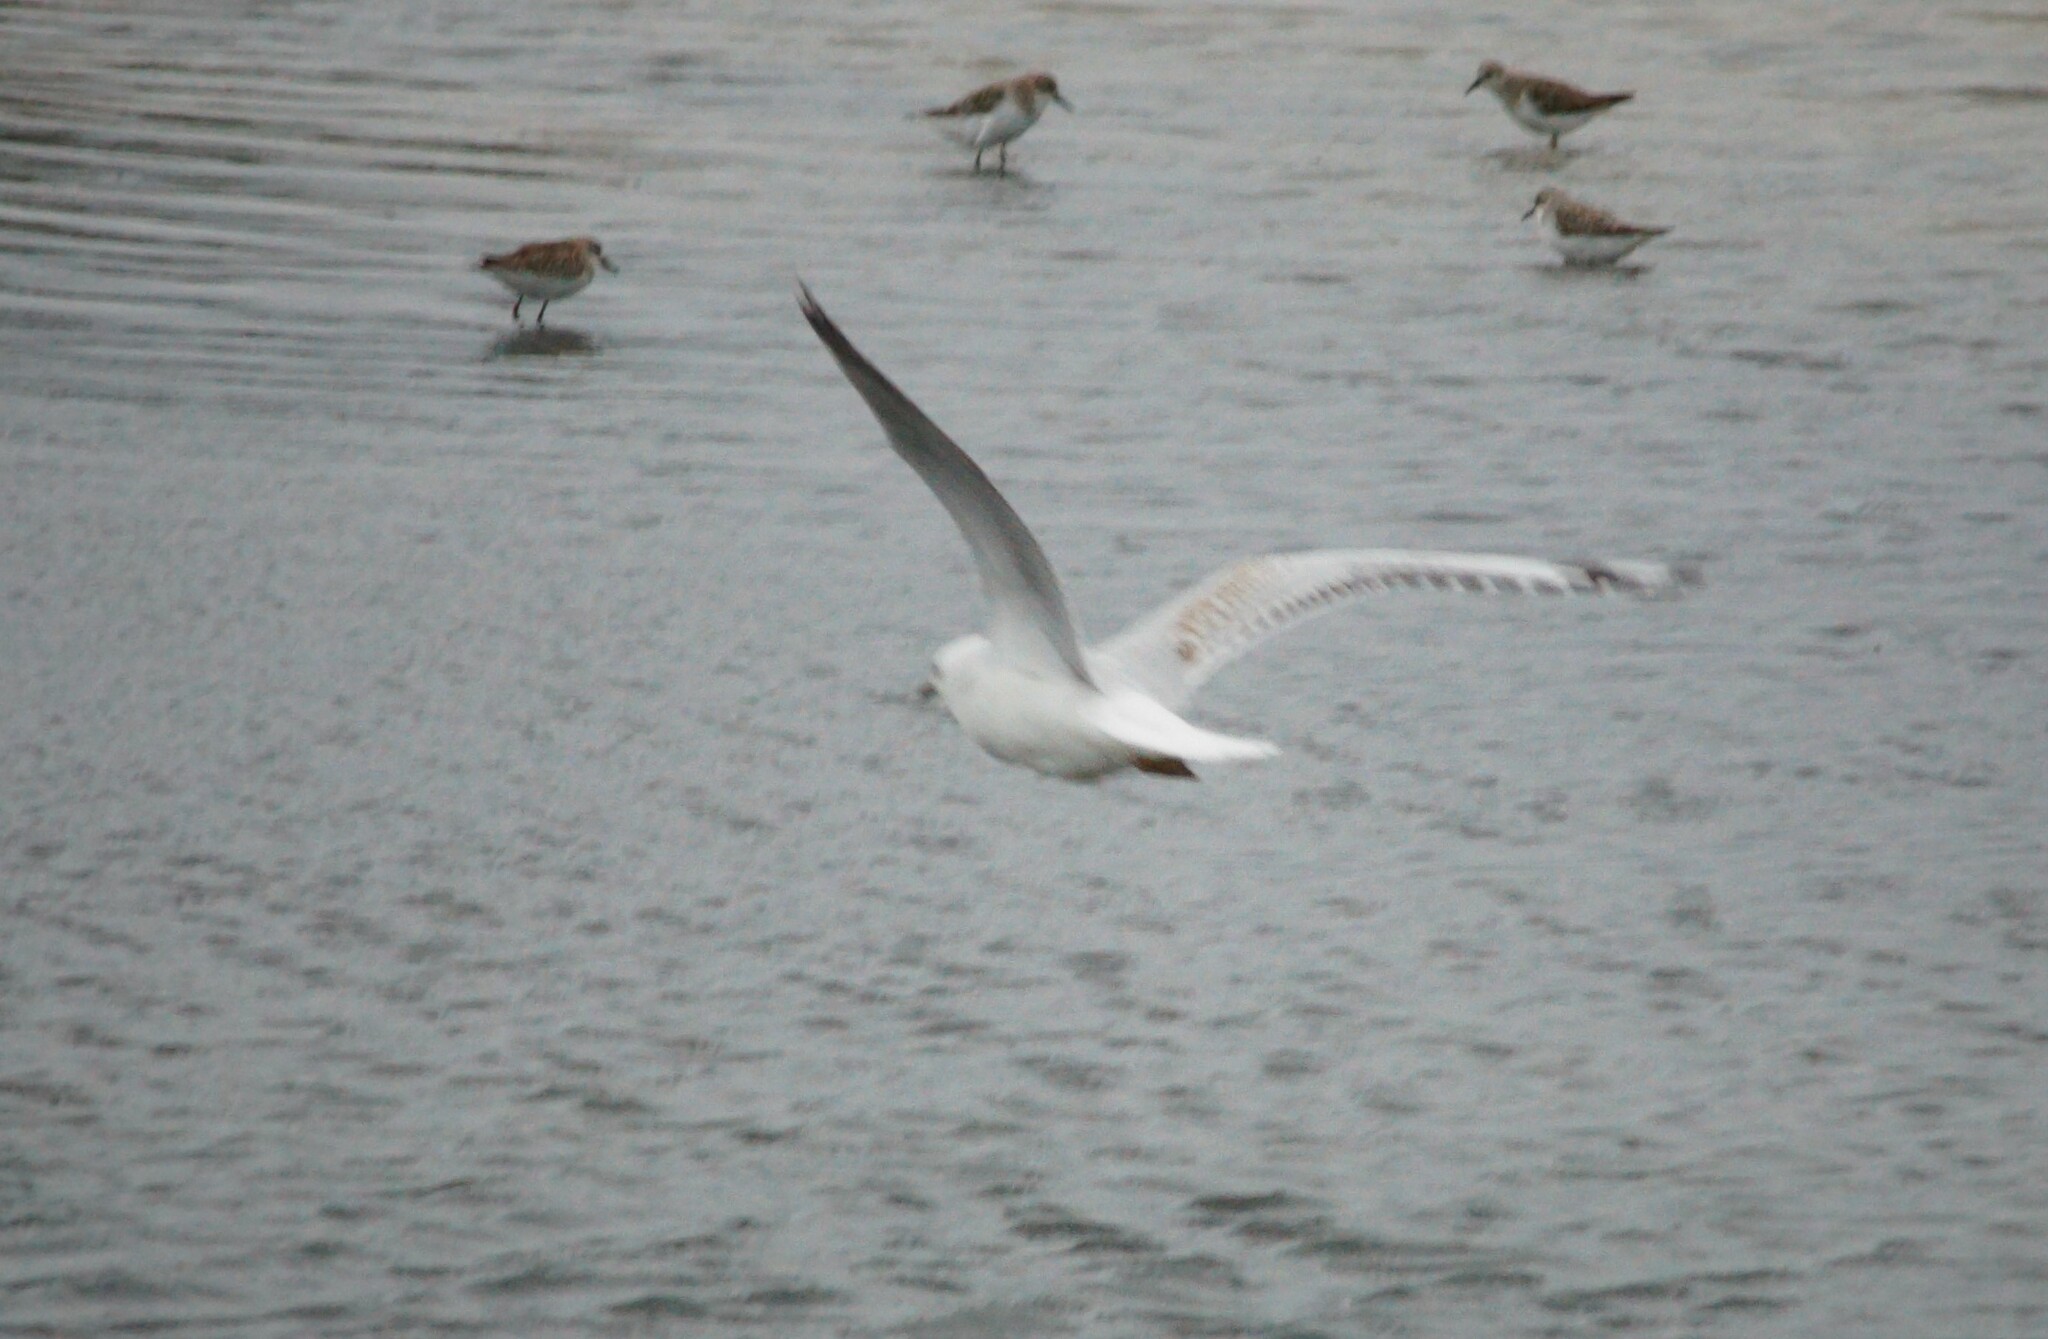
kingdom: Animalia
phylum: Chordata
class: Aves
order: Charadriiformes
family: Laridae
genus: Chroicocephalus
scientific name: Chroicocephalus novaehollandiae
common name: Silver gull
